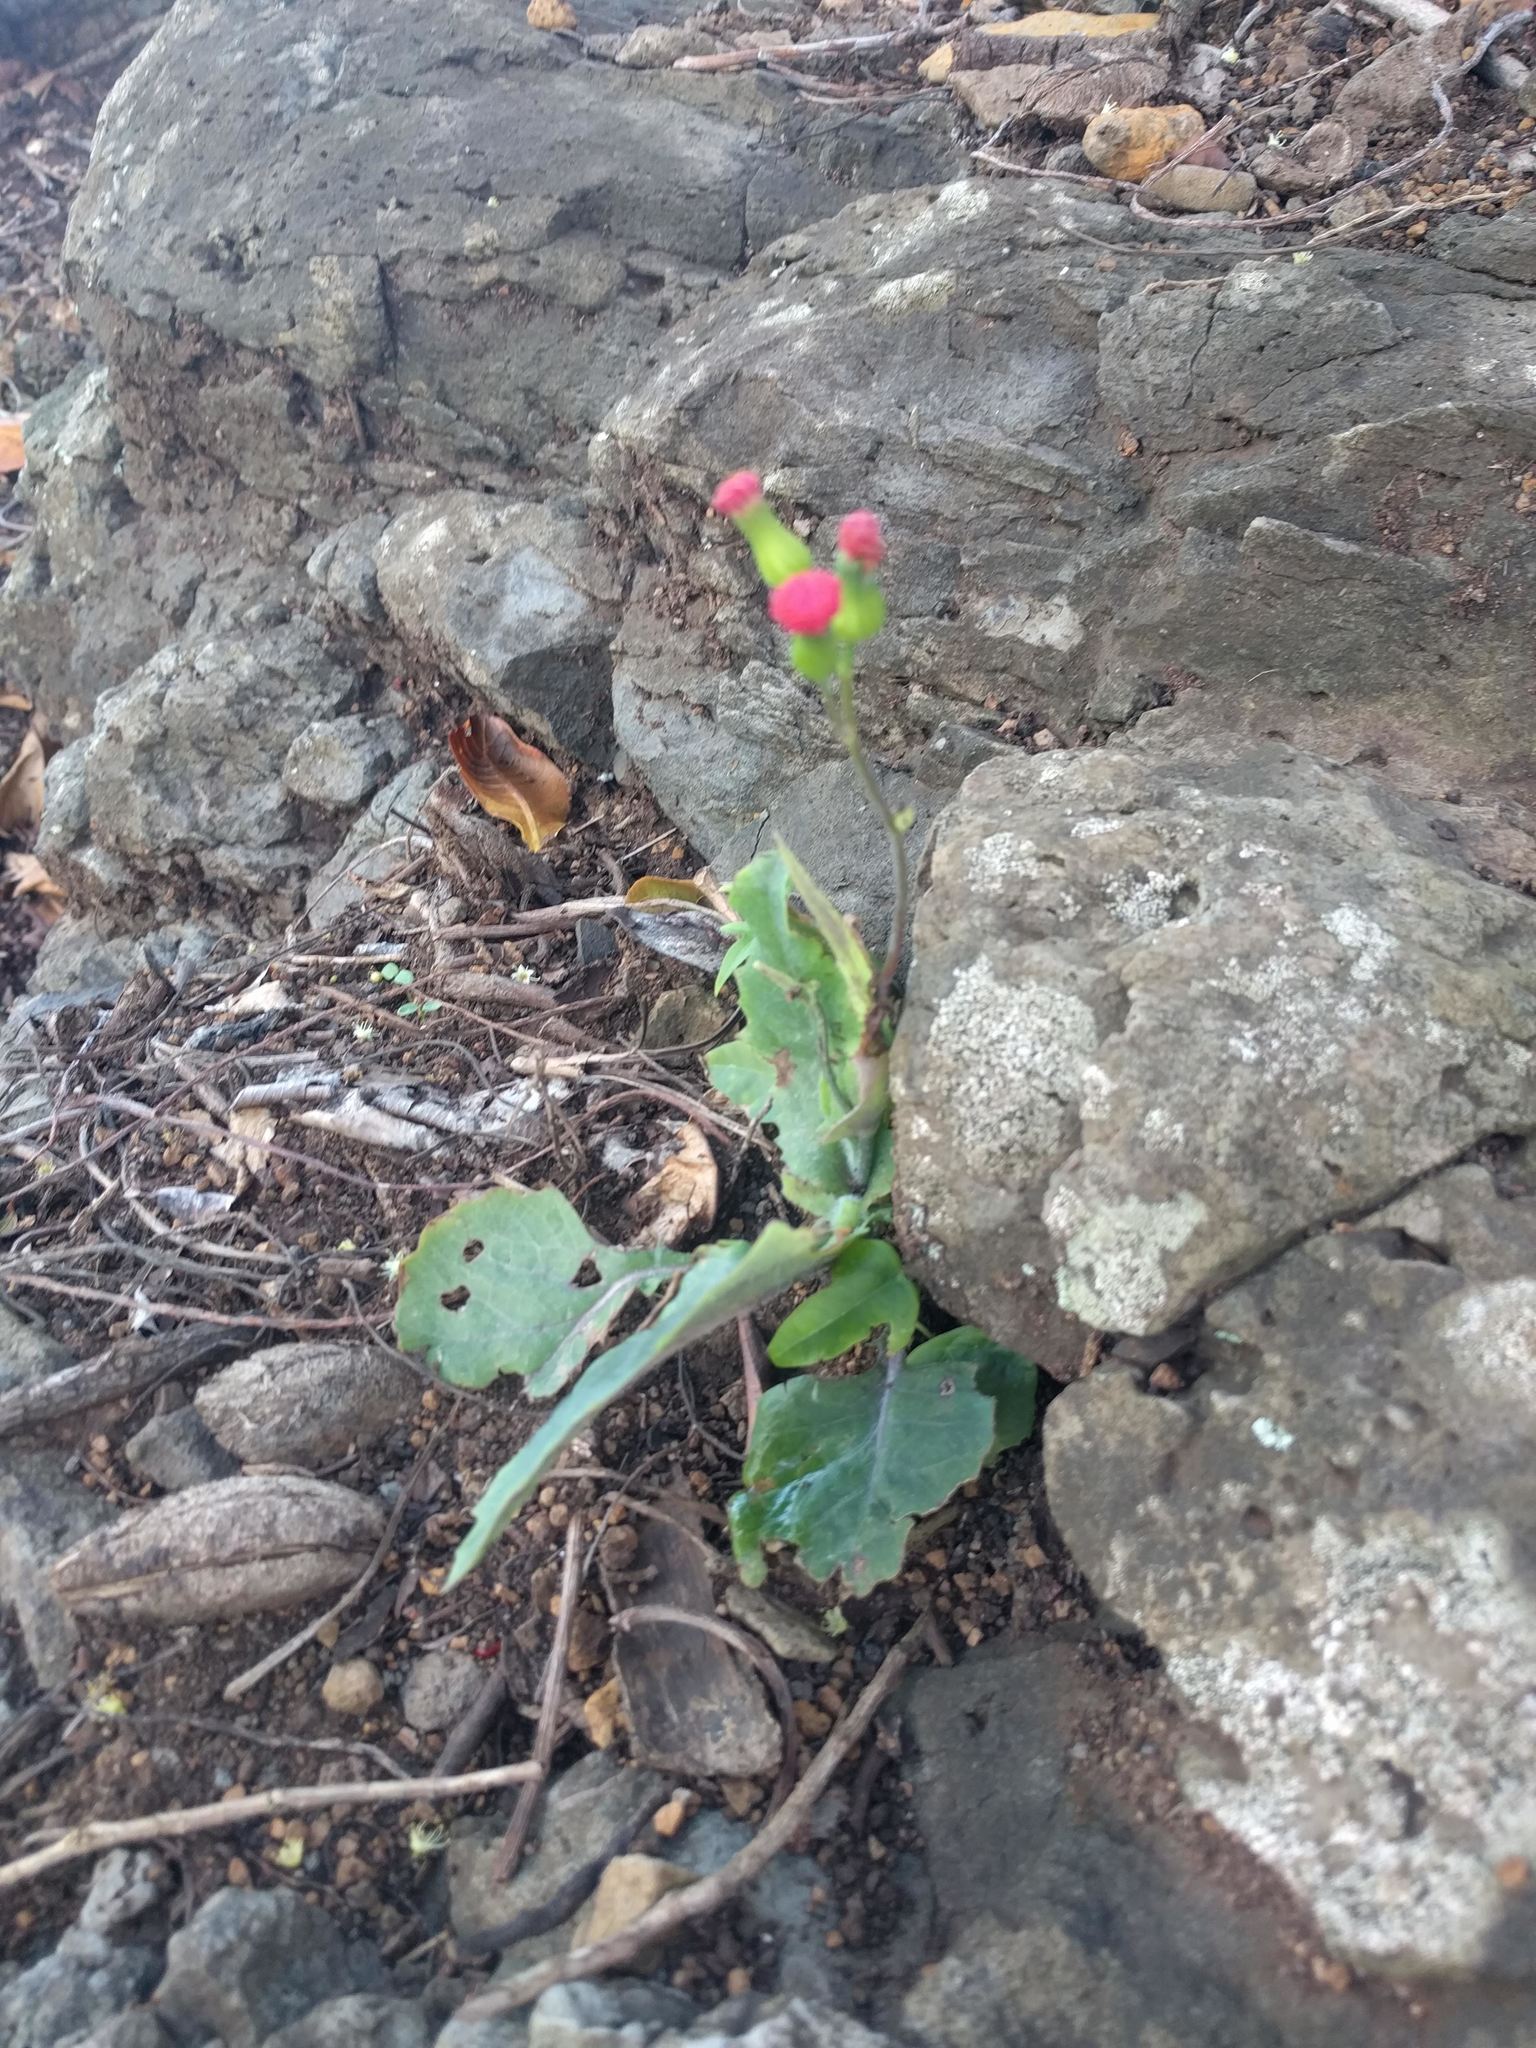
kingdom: Plantae
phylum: Tracheophyta
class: Magnoliopsida
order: Asterales
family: Asteraceae
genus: Emilia
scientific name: Emilia fosbergii
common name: Florida tasselflower
